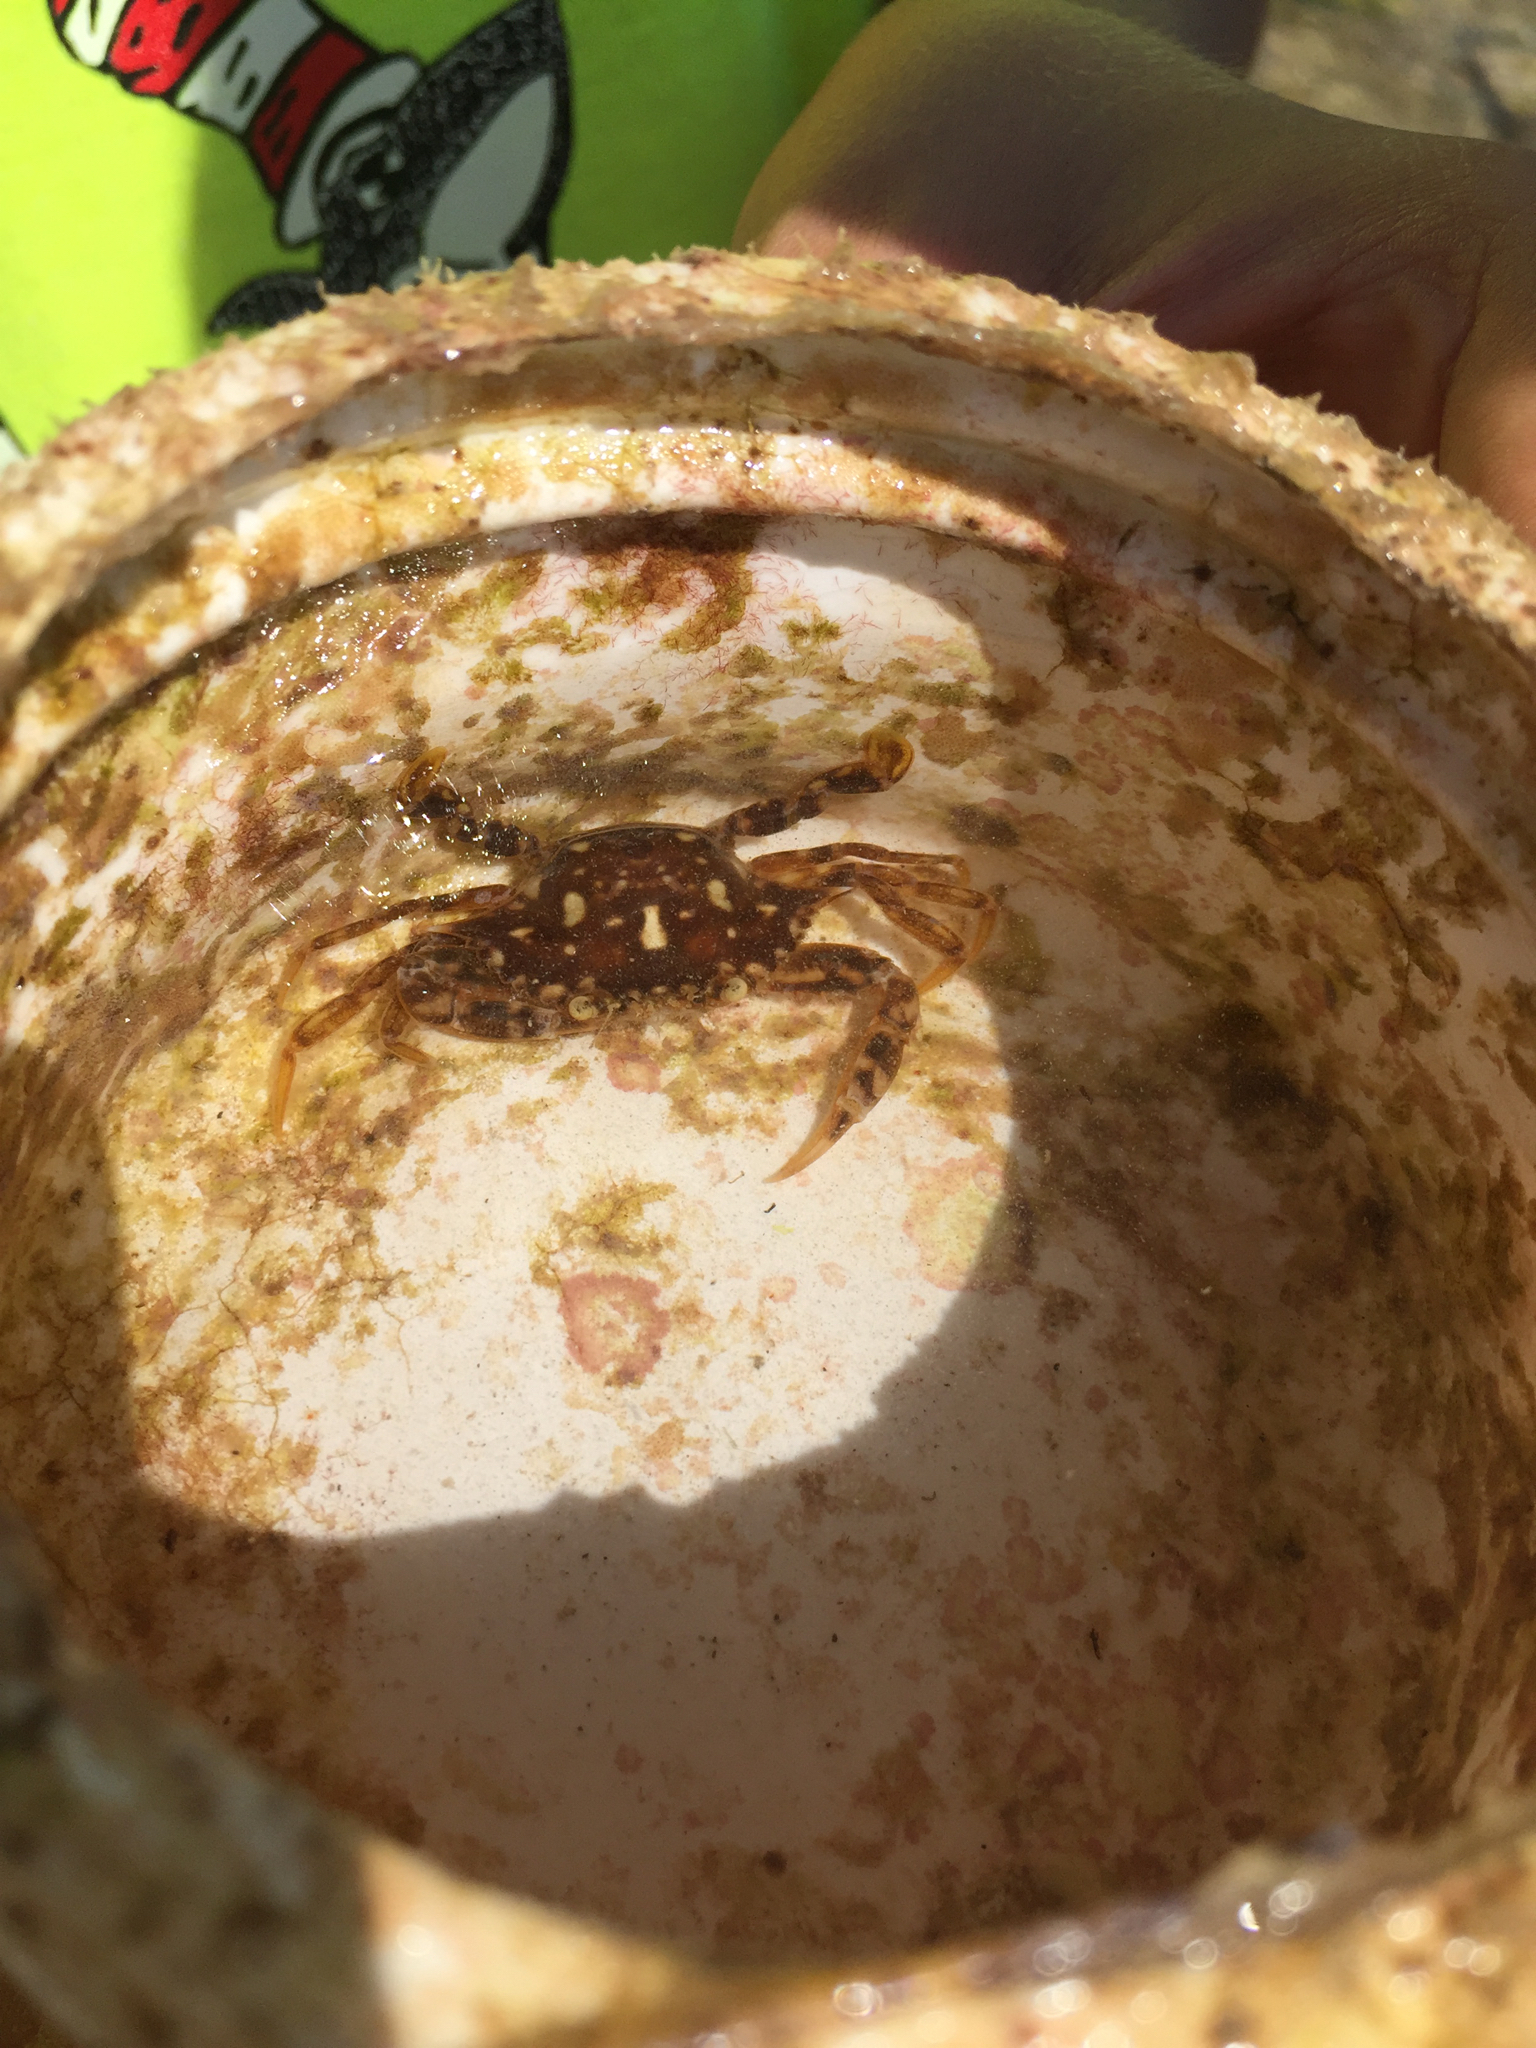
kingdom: Animalia
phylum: Arthropoda
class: Malacostraca
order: Decapoda
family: Portunidae
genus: Portunus
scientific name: Portunus sayi
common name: Sargassum crab
